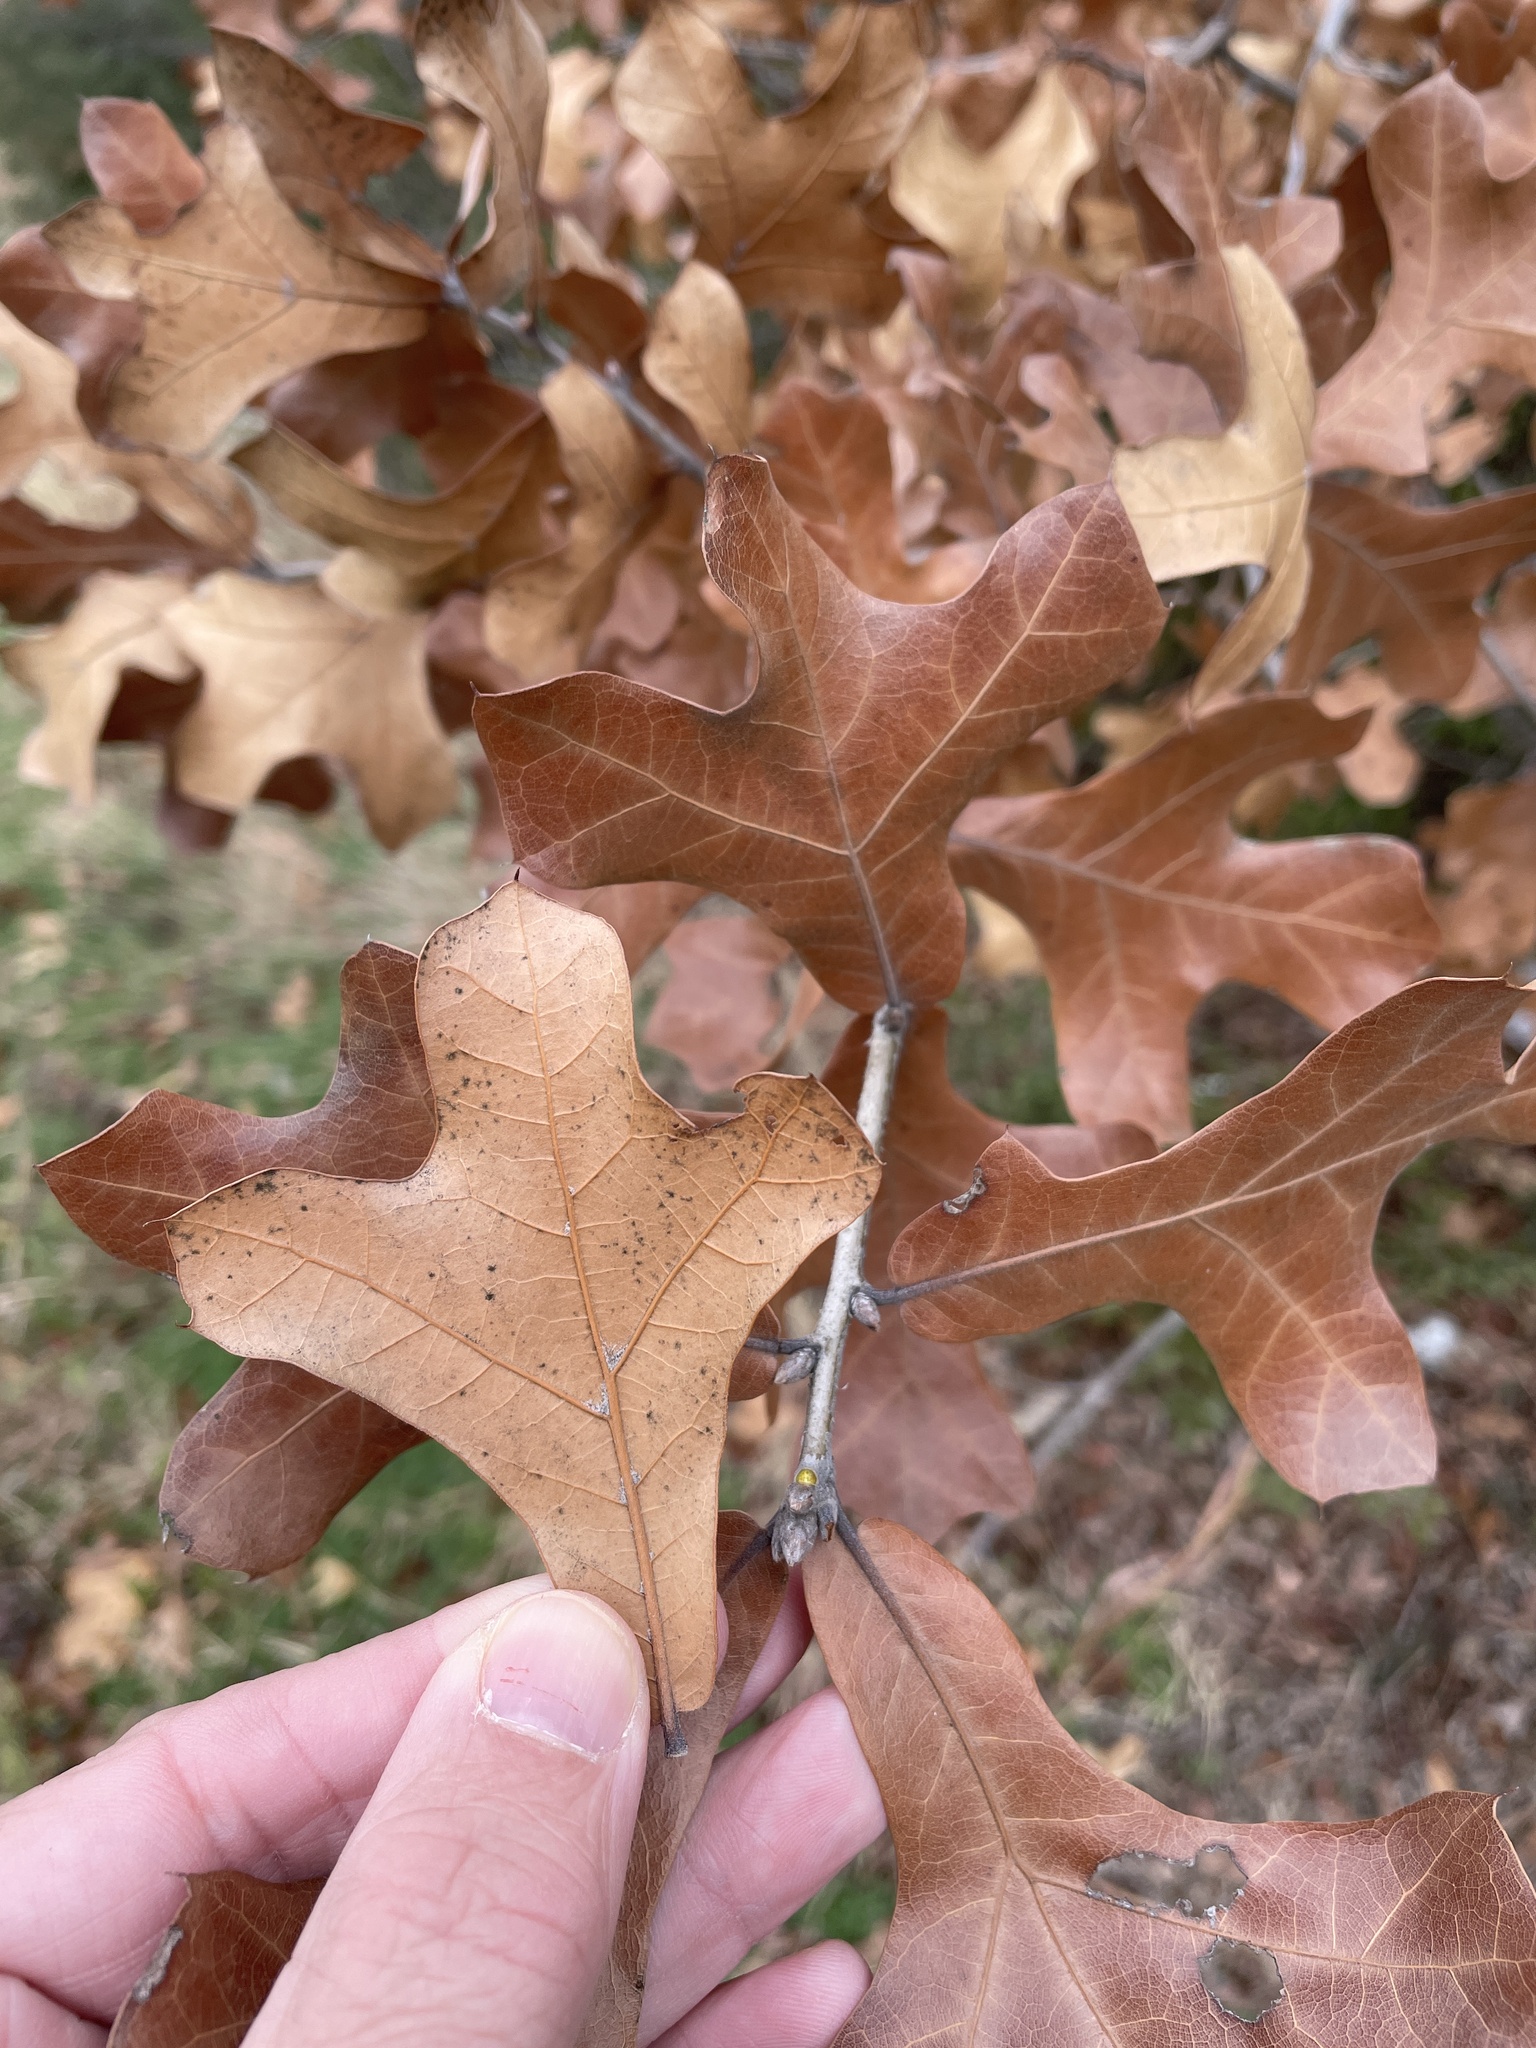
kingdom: Plantae
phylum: Tracheophyta
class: Magnoliopsida
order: Fagales
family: Fagaceae
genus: Quercus
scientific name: Quercus marilandica
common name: Blackjack oak
